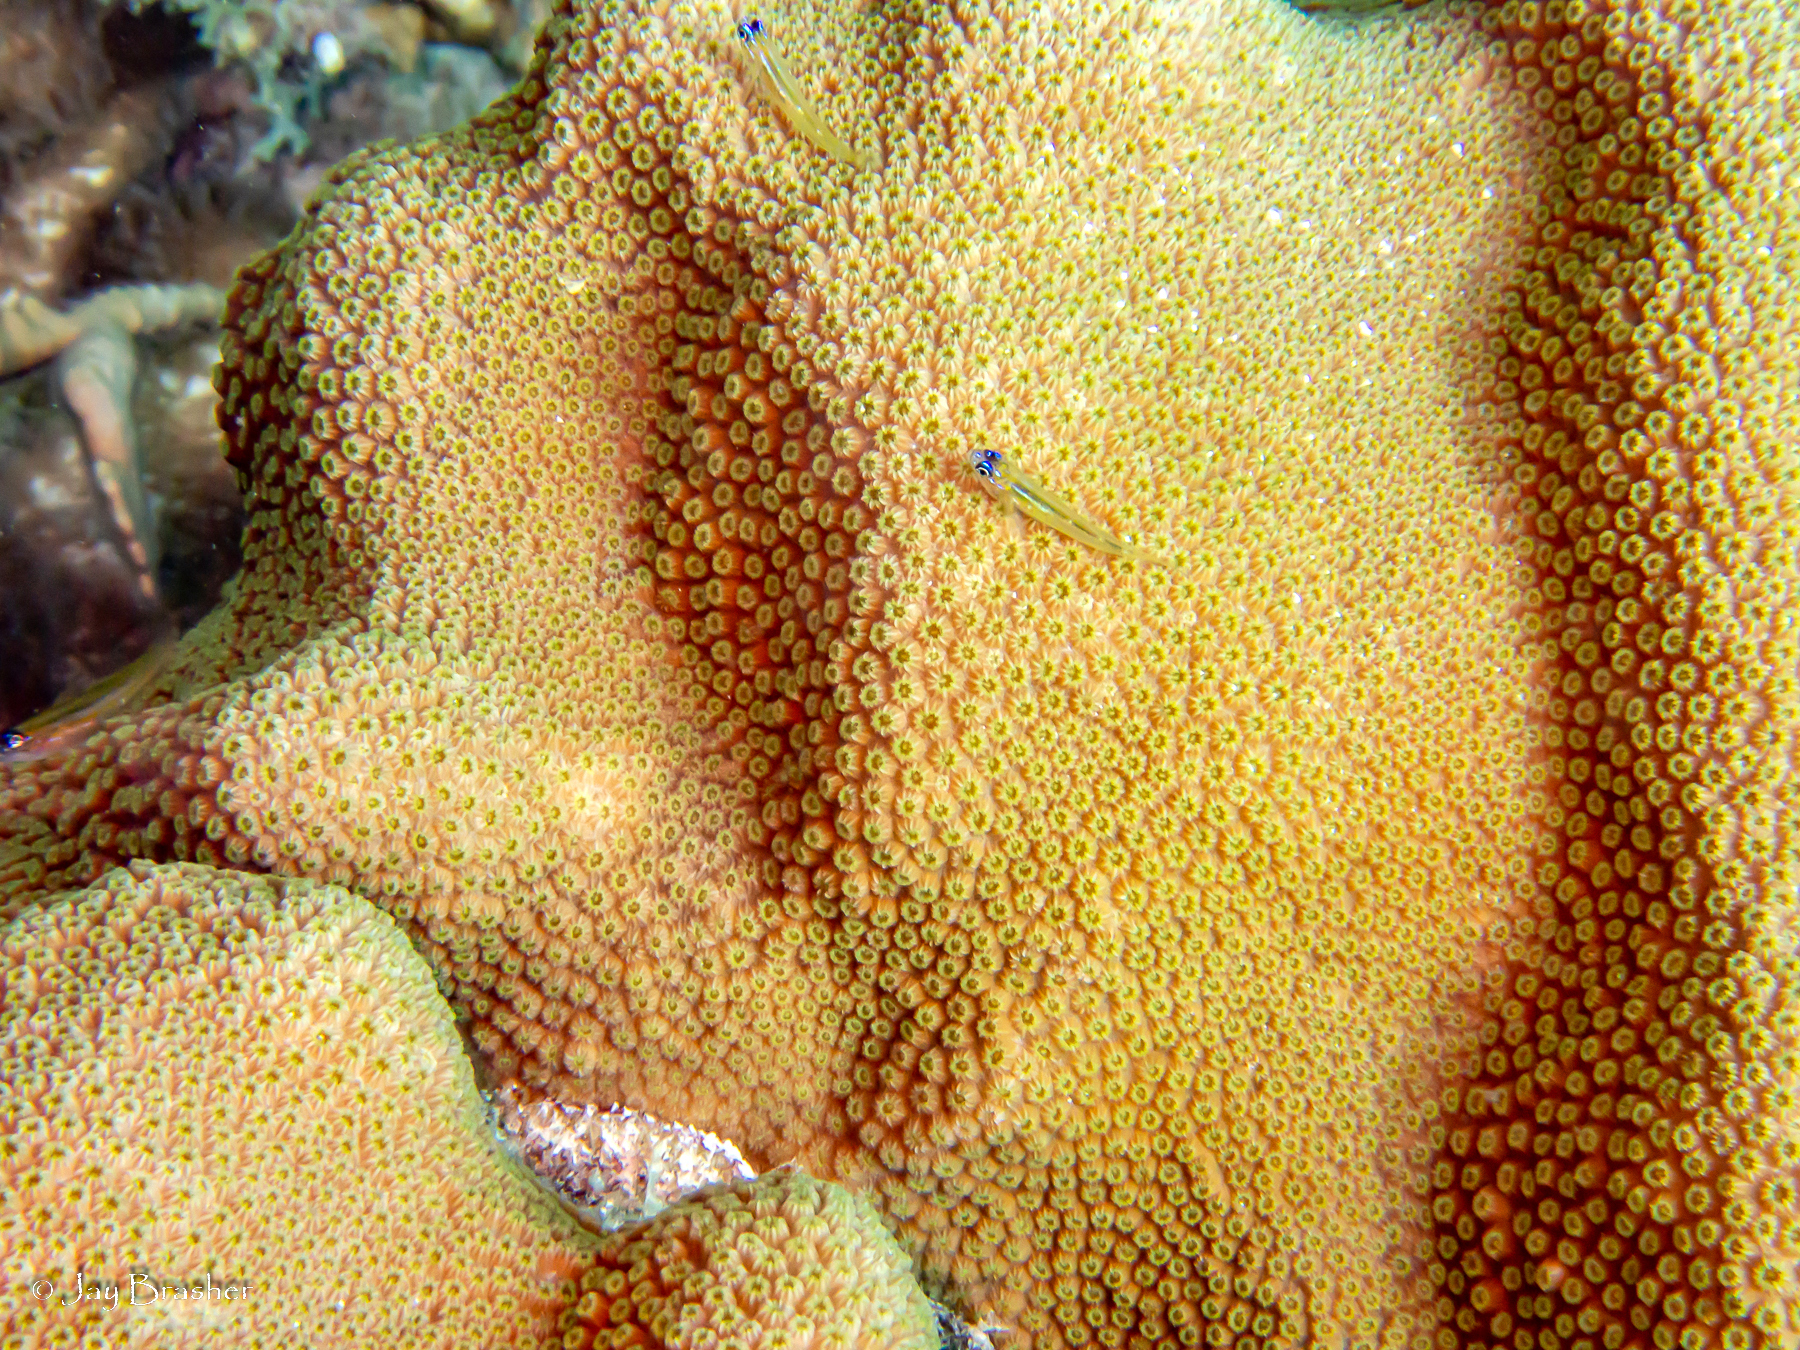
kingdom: Animalia
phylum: Cnidaria
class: Anthozoa
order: Scleractinia
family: Merulinidae
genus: Orbicella
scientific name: Orbicella faveolata
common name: Mountainous star coral
